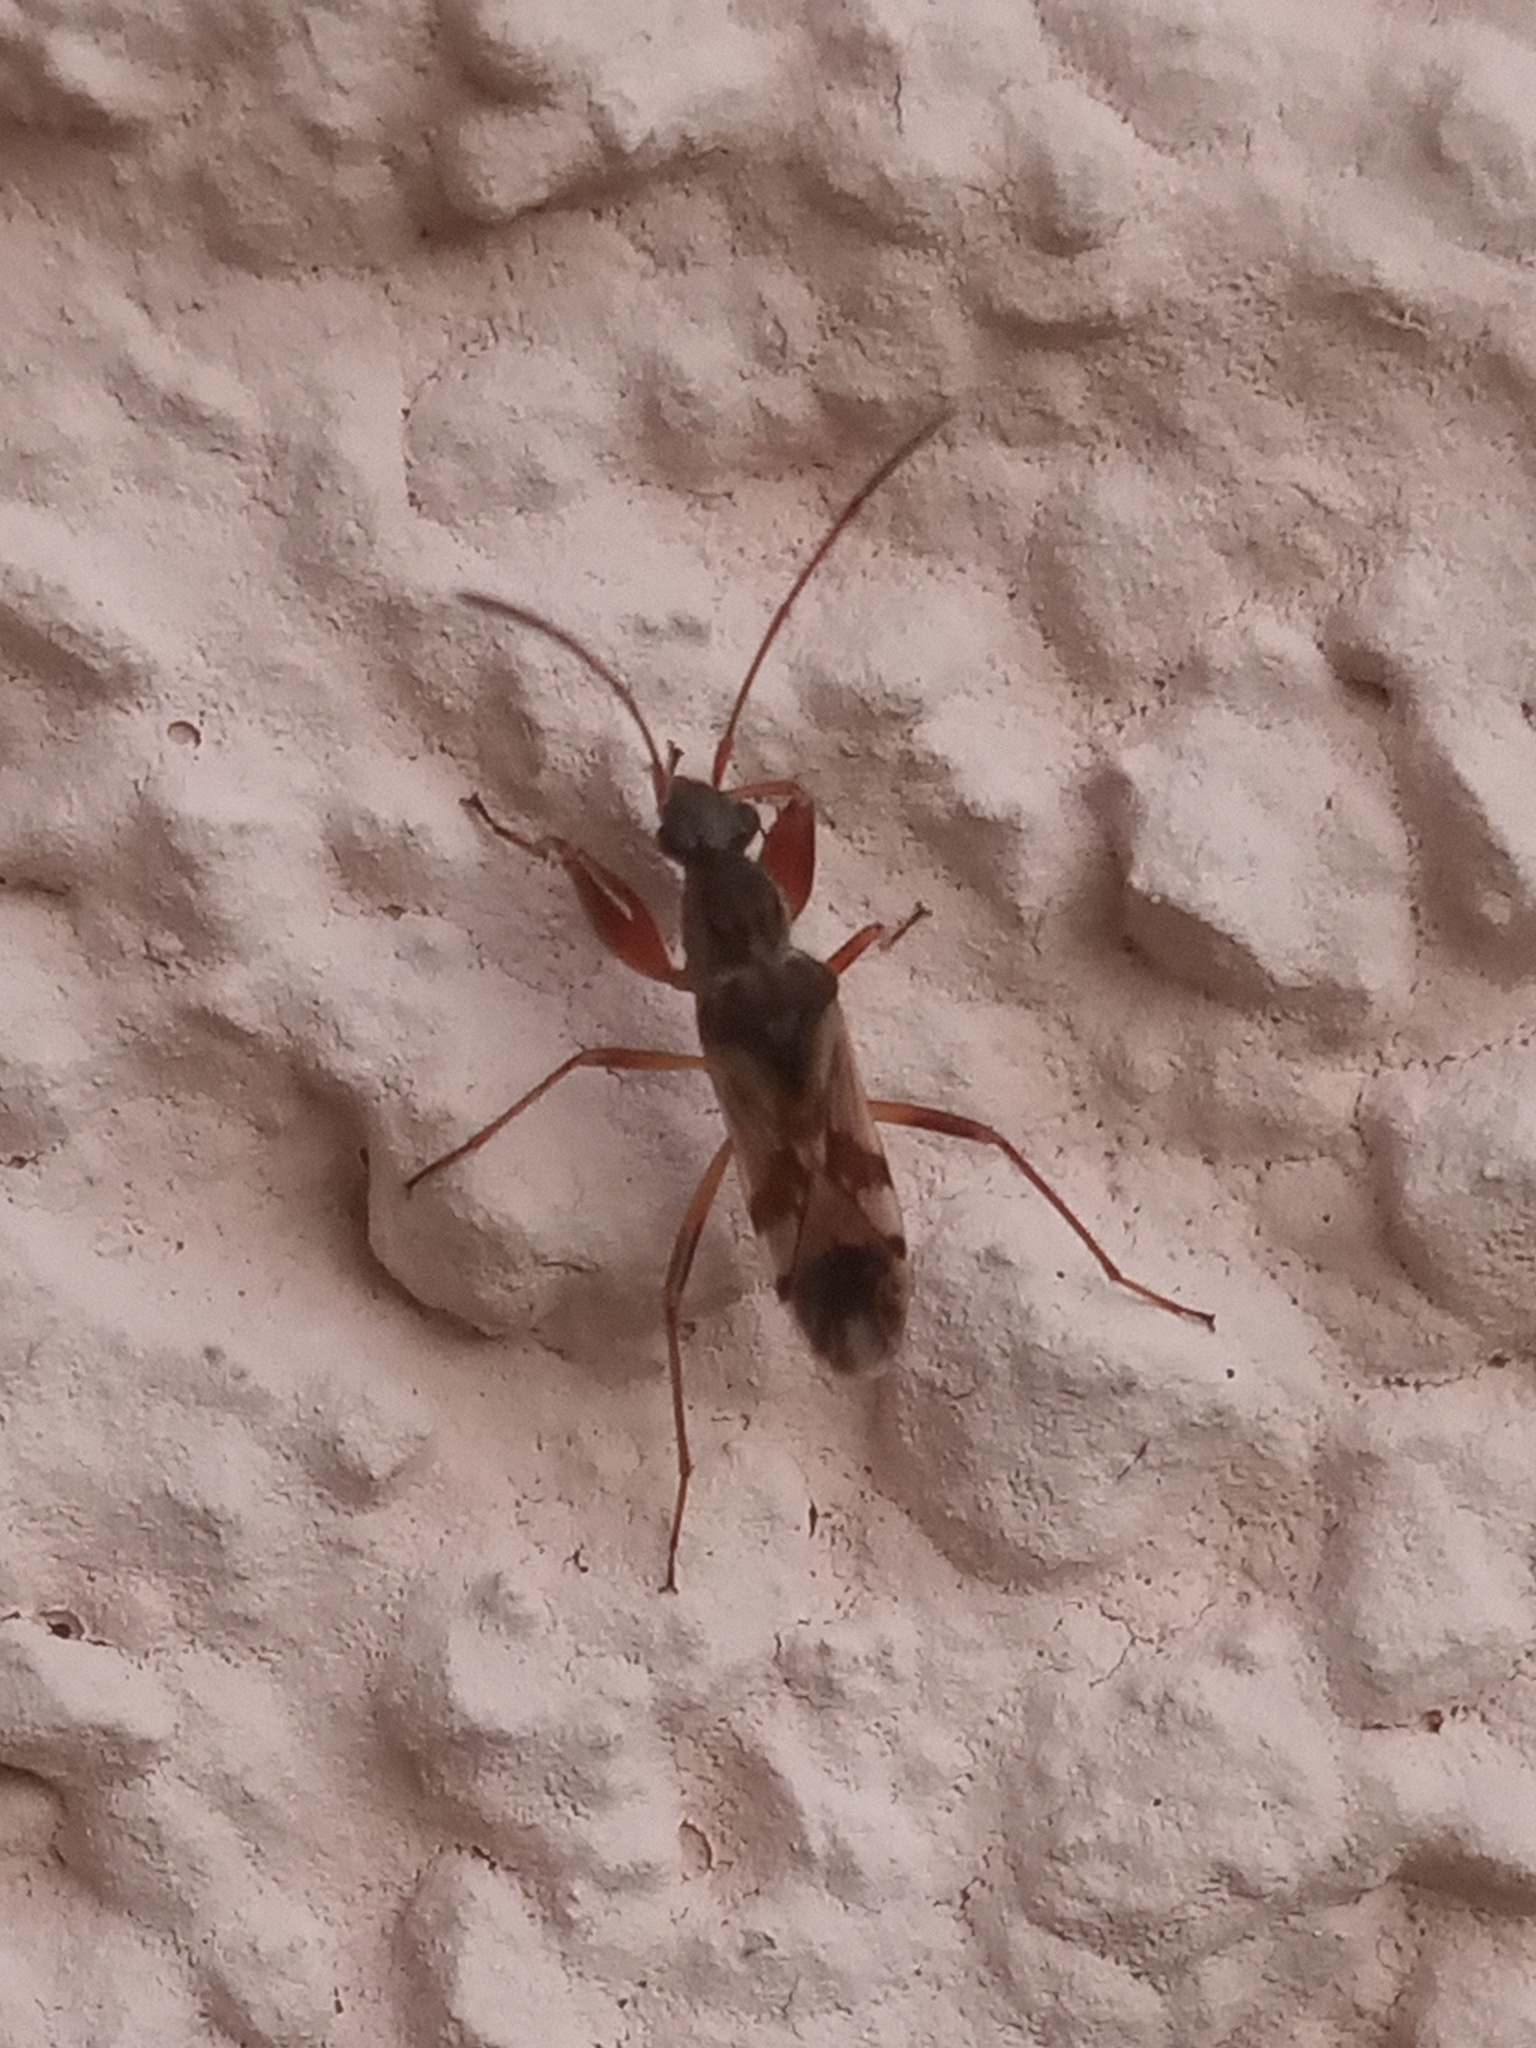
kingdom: Animalia
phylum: Arthropoda
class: Insecta
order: Hemiptera
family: Rhyparochromidae
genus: Neopamera
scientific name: Neopamera bilobata
